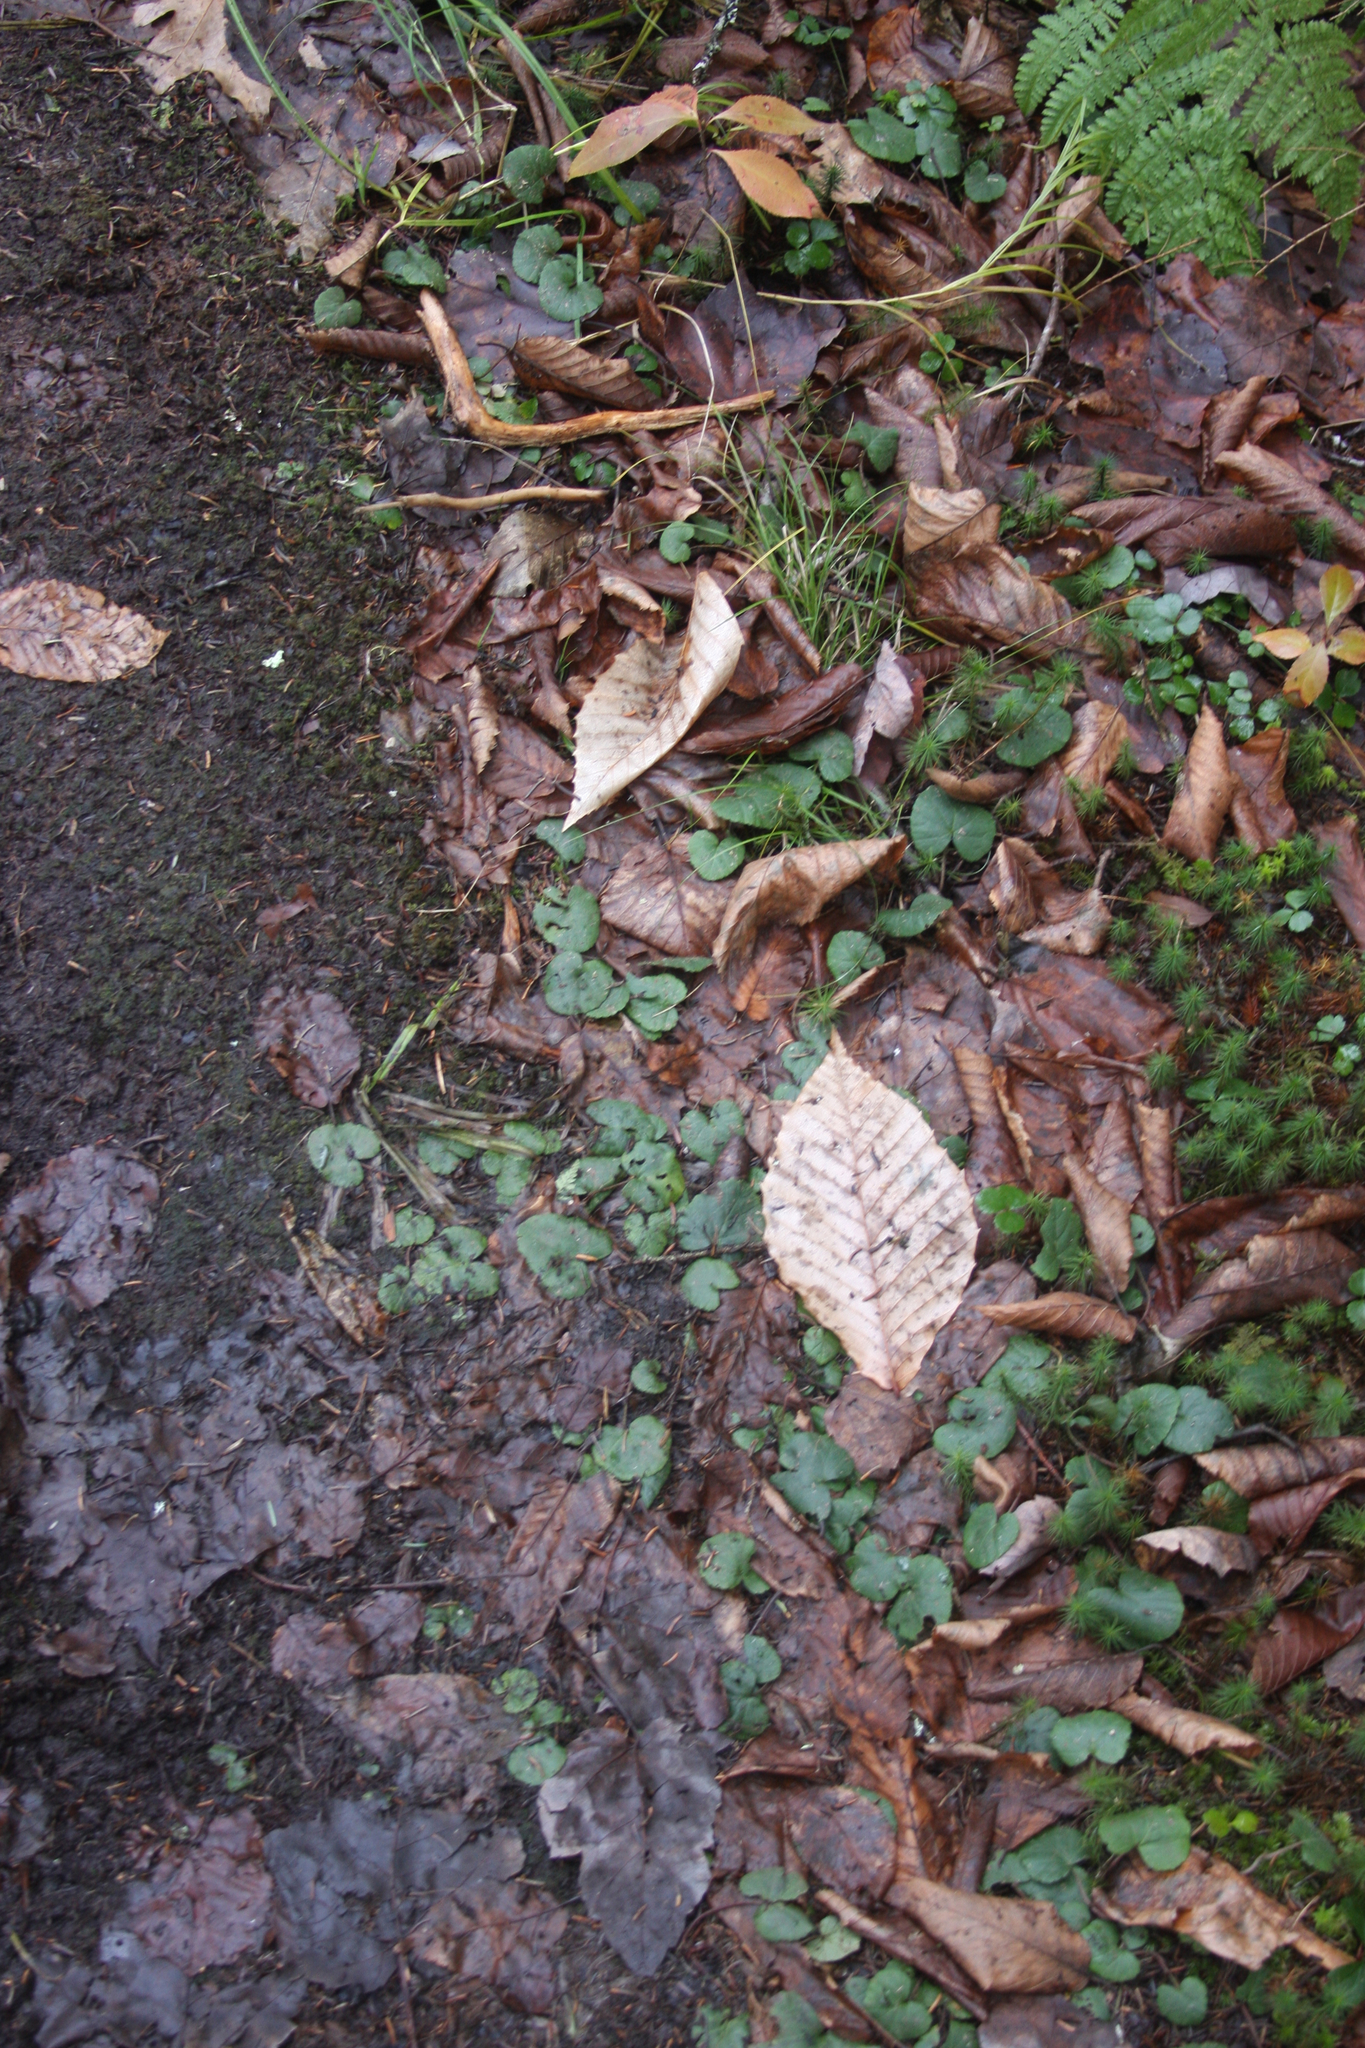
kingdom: Plantae
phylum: Tracheophyta
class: Magnoliopsida
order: Fagales
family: Fagaceae
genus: Fagus
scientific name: Fagus grandifolia
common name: American beech
